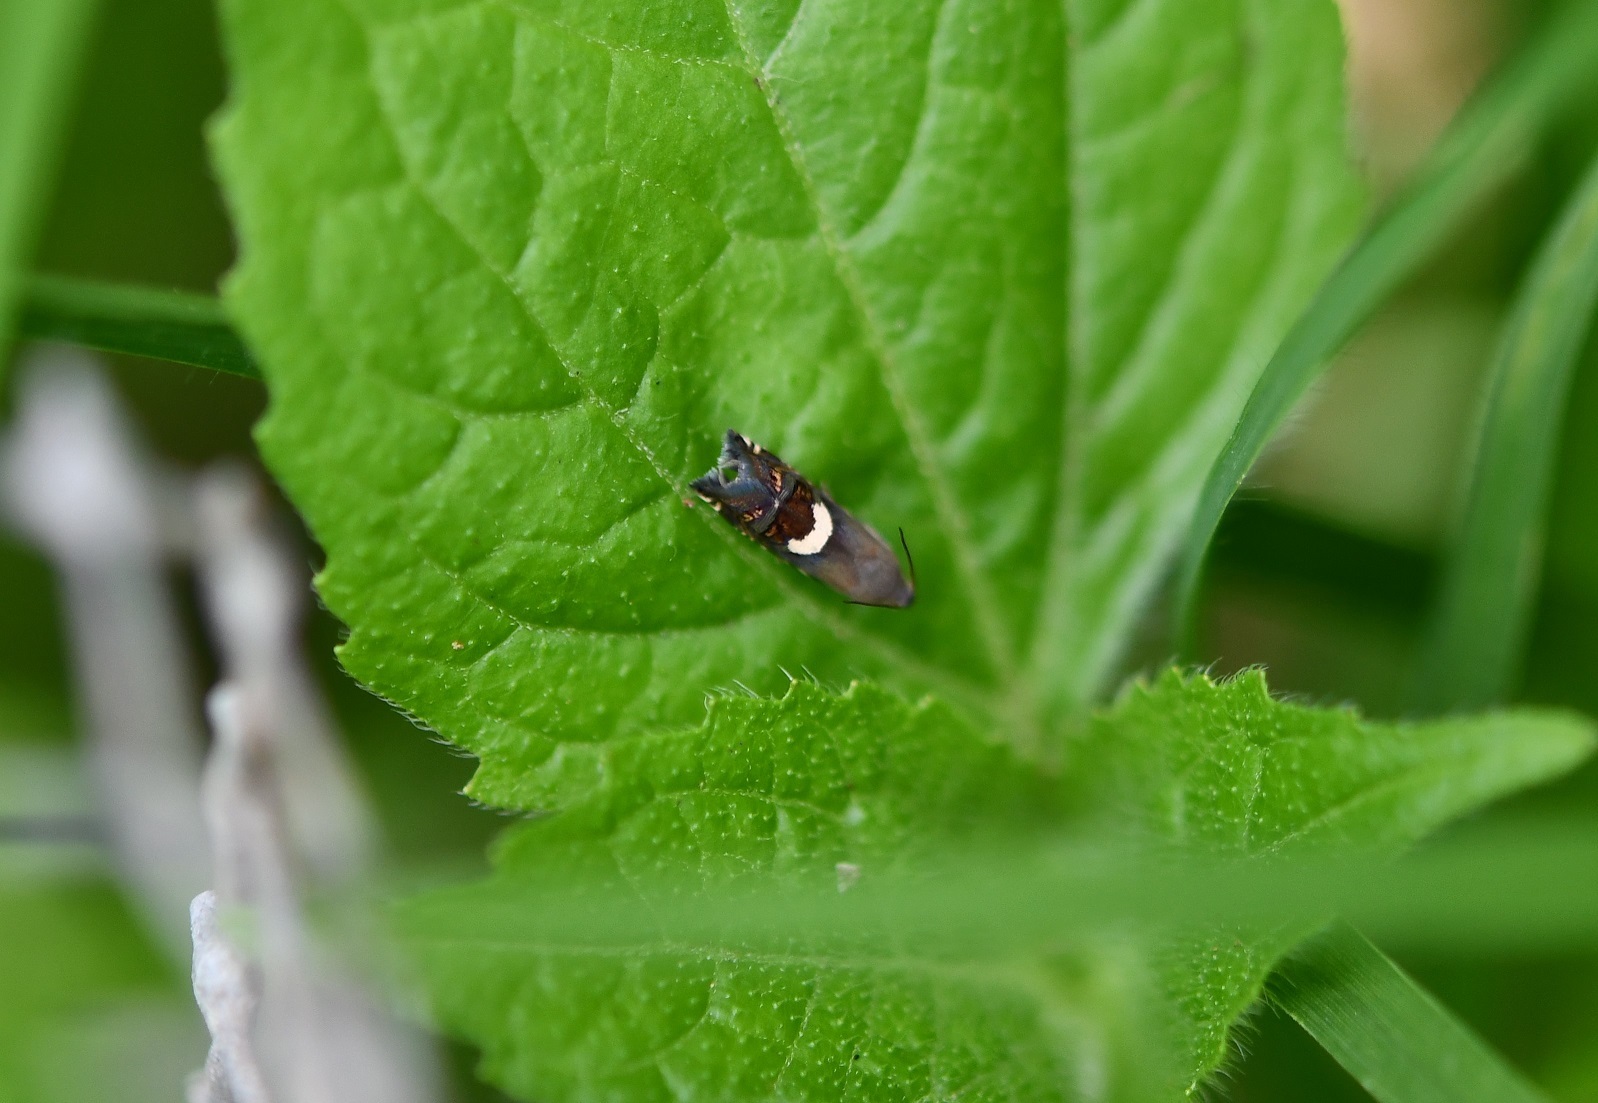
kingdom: Animalia
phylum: Arthropoda
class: Insecta
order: Lepidoptera
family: Tortricidae
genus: Grapholita
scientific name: Grapholita fana
